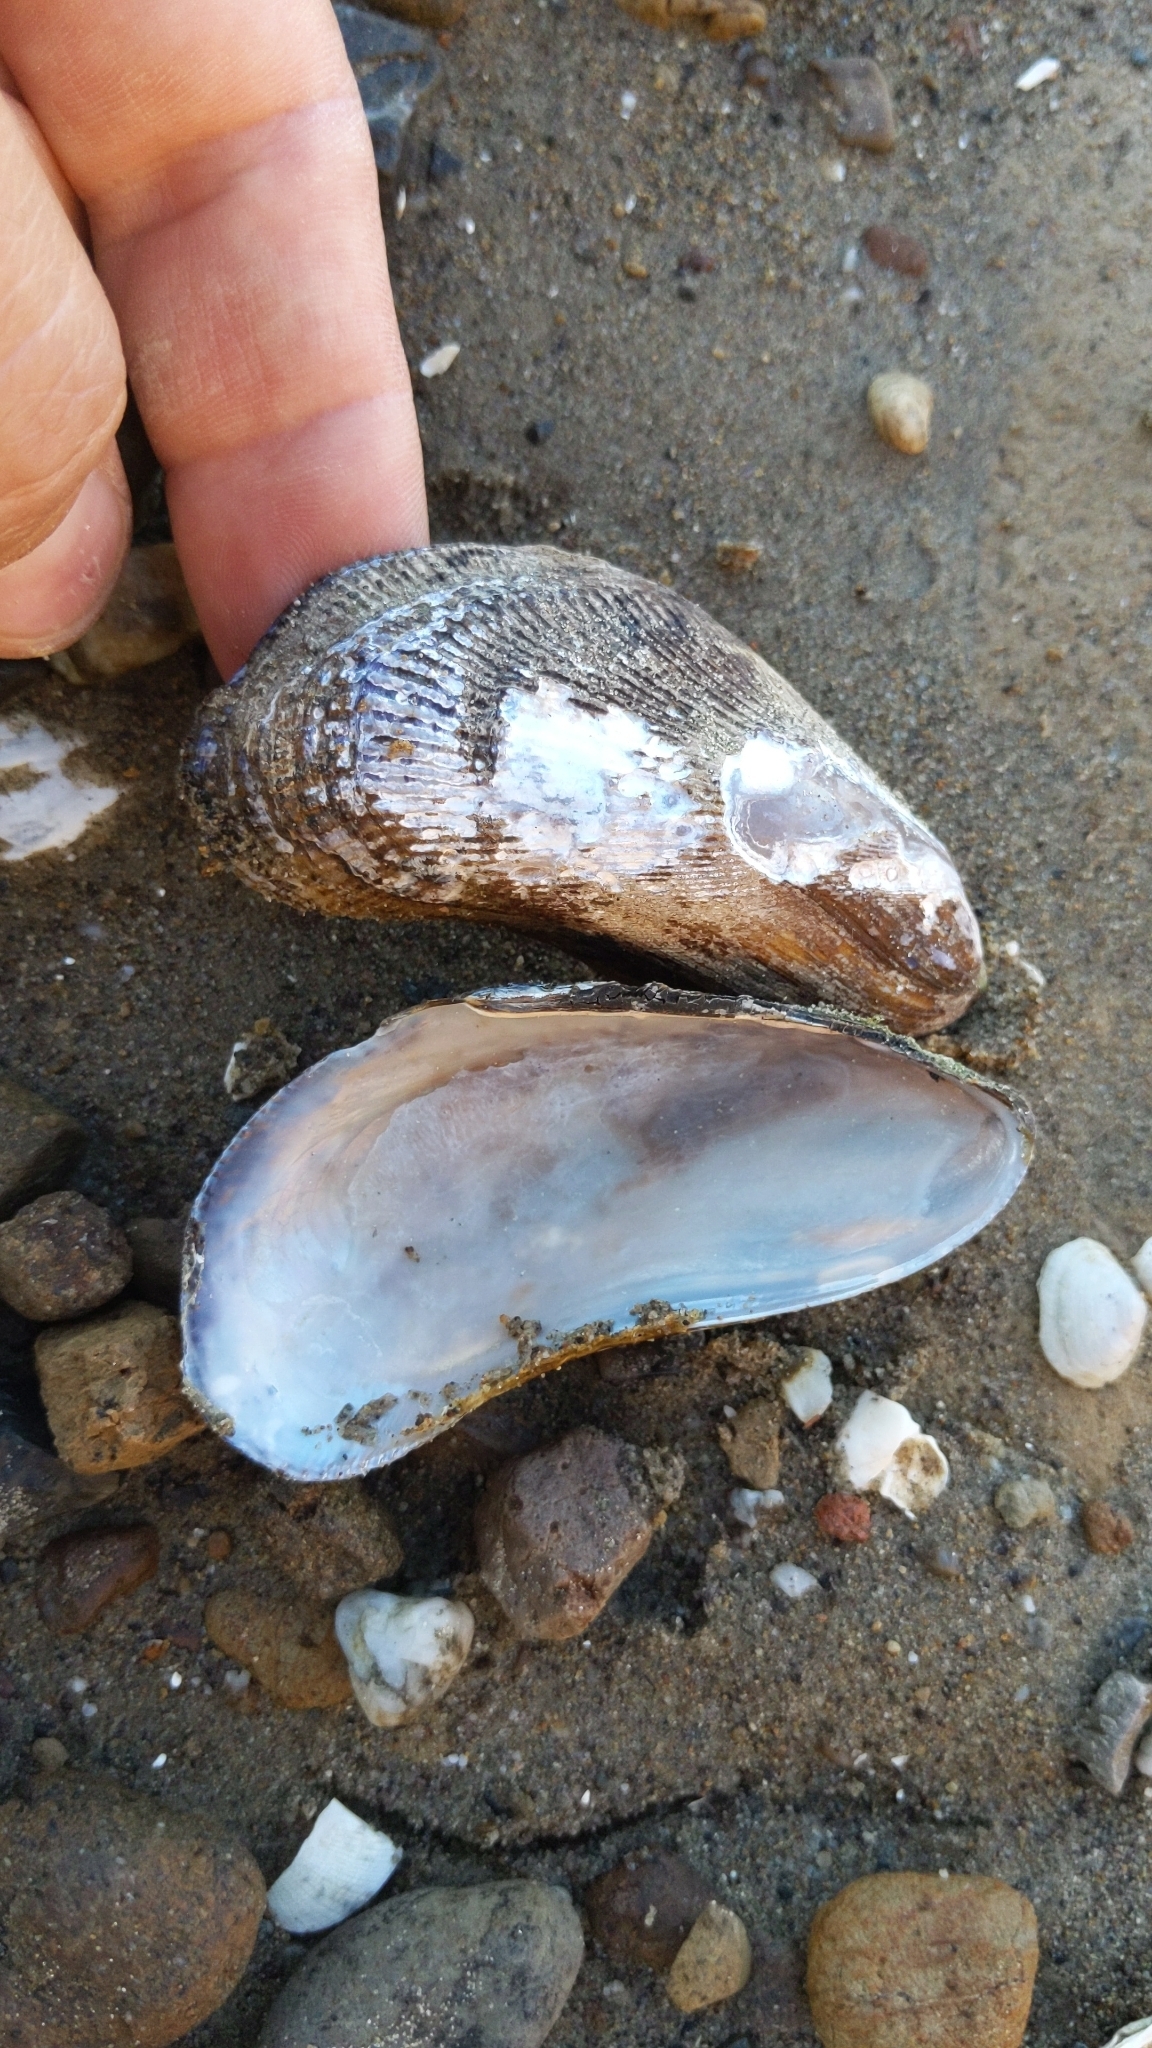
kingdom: Animalia
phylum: Mollusca
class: Bivalvia
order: Mytilida
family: Mytilidae
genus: Geukensia
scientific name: Geukensia demissa
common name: Ribbed mussel
